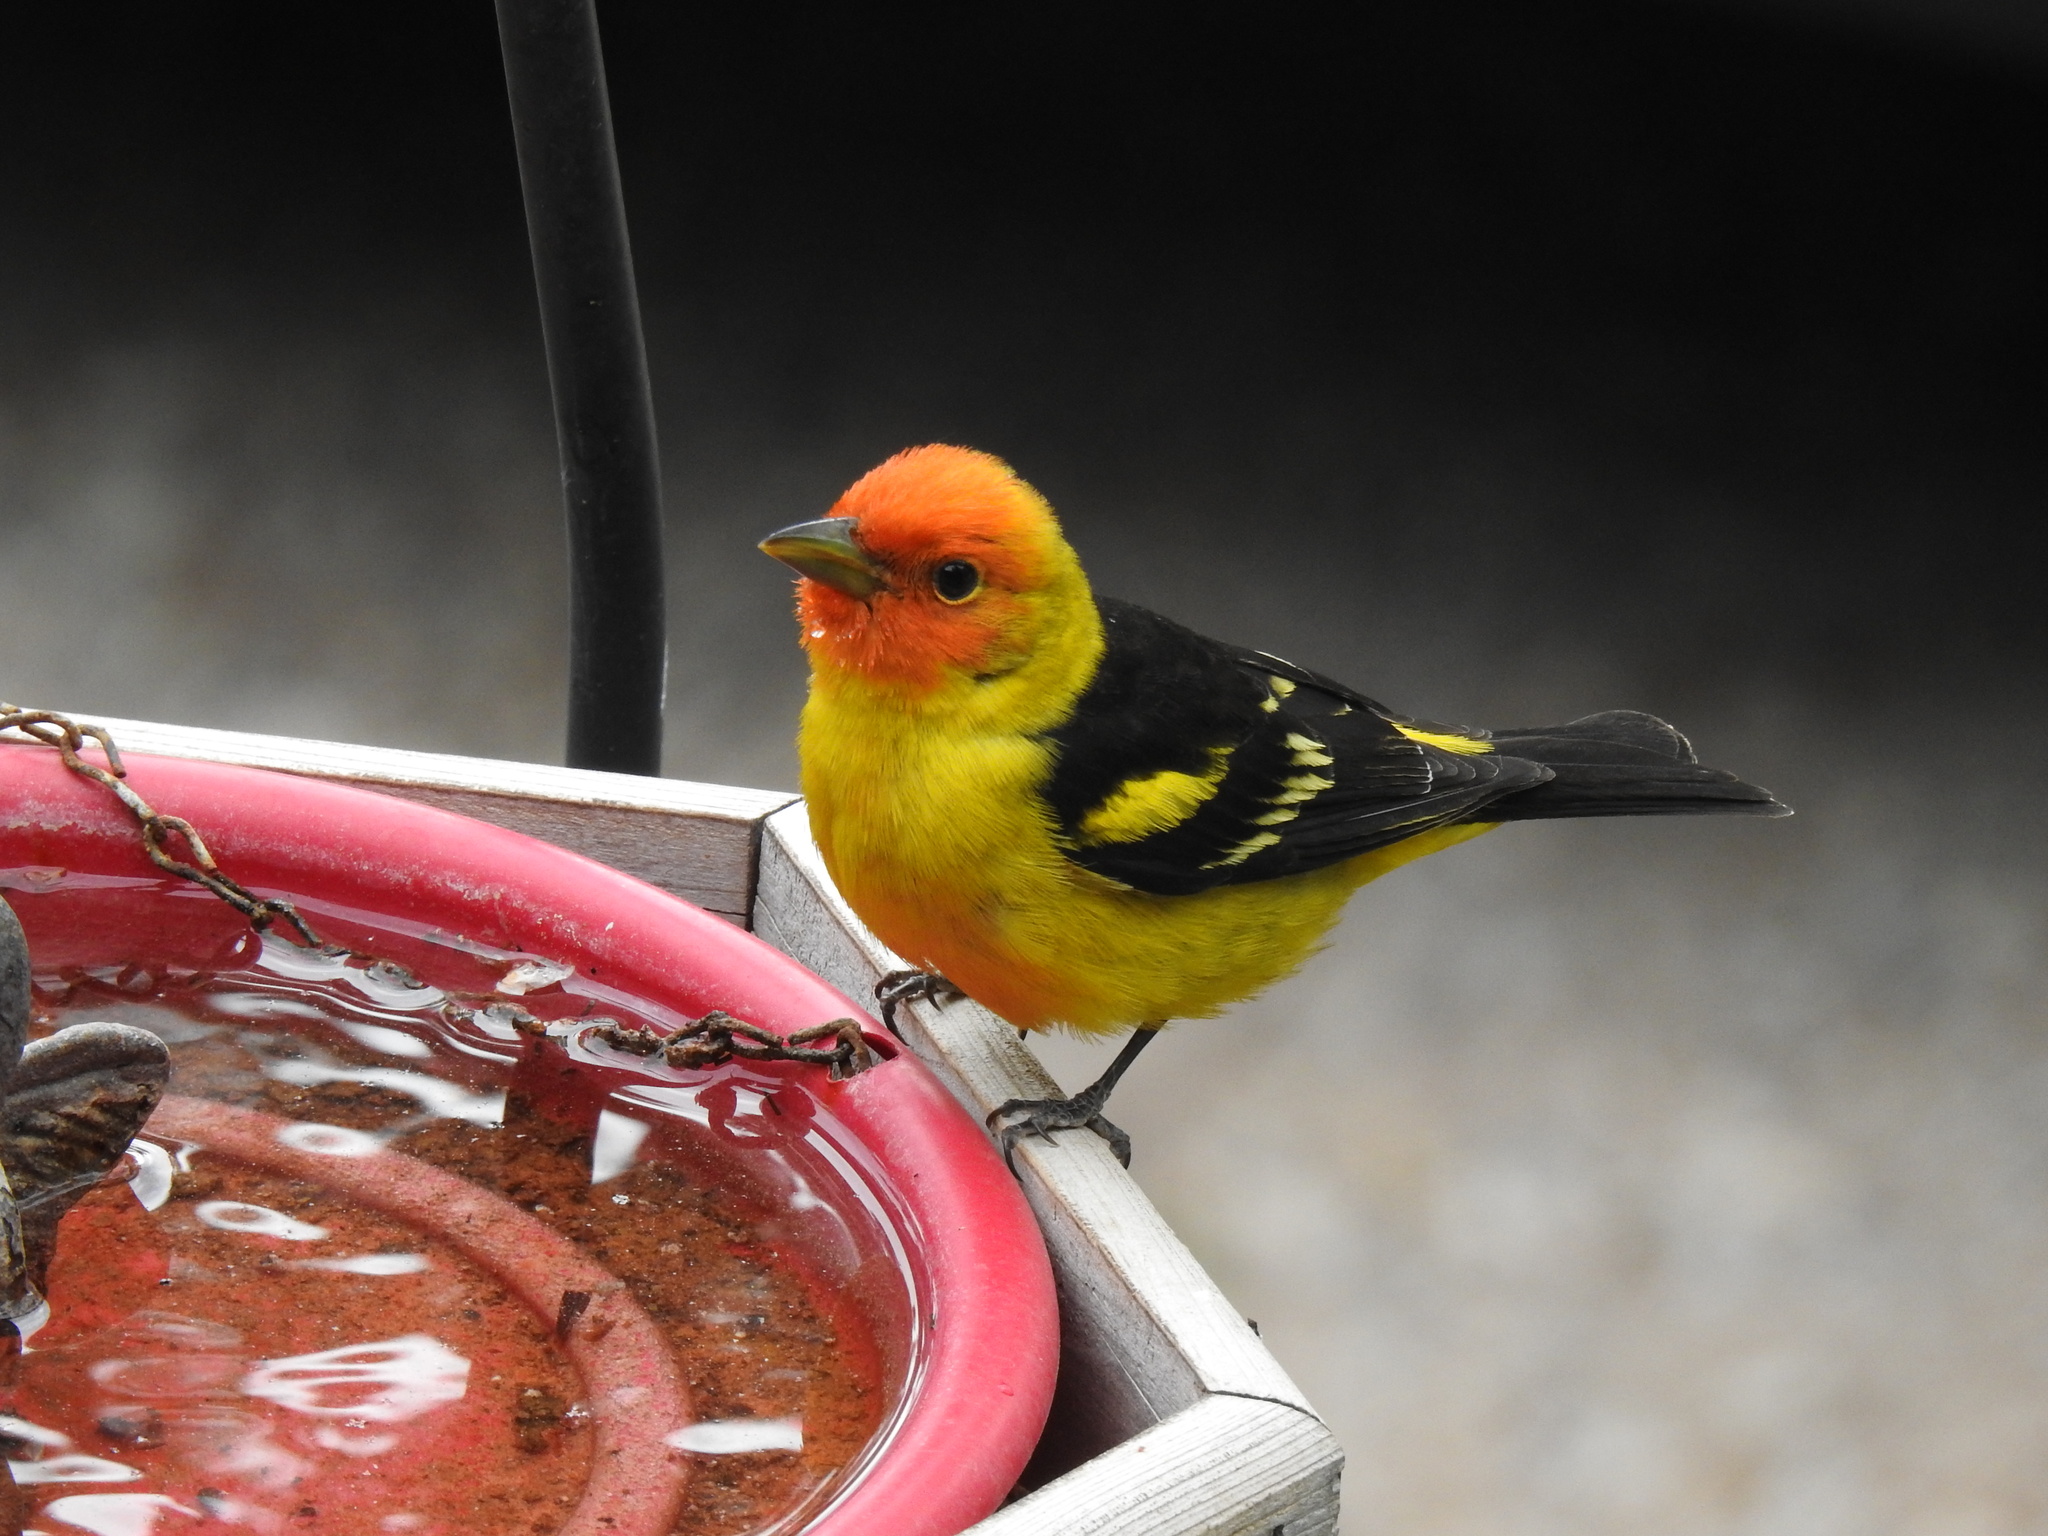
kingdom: Animalia
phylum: Chordata
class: Aves
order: Passeriformes
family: Cardinalidae
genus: Piranga
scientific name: Piranga ludoviciana
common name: Western tanager
